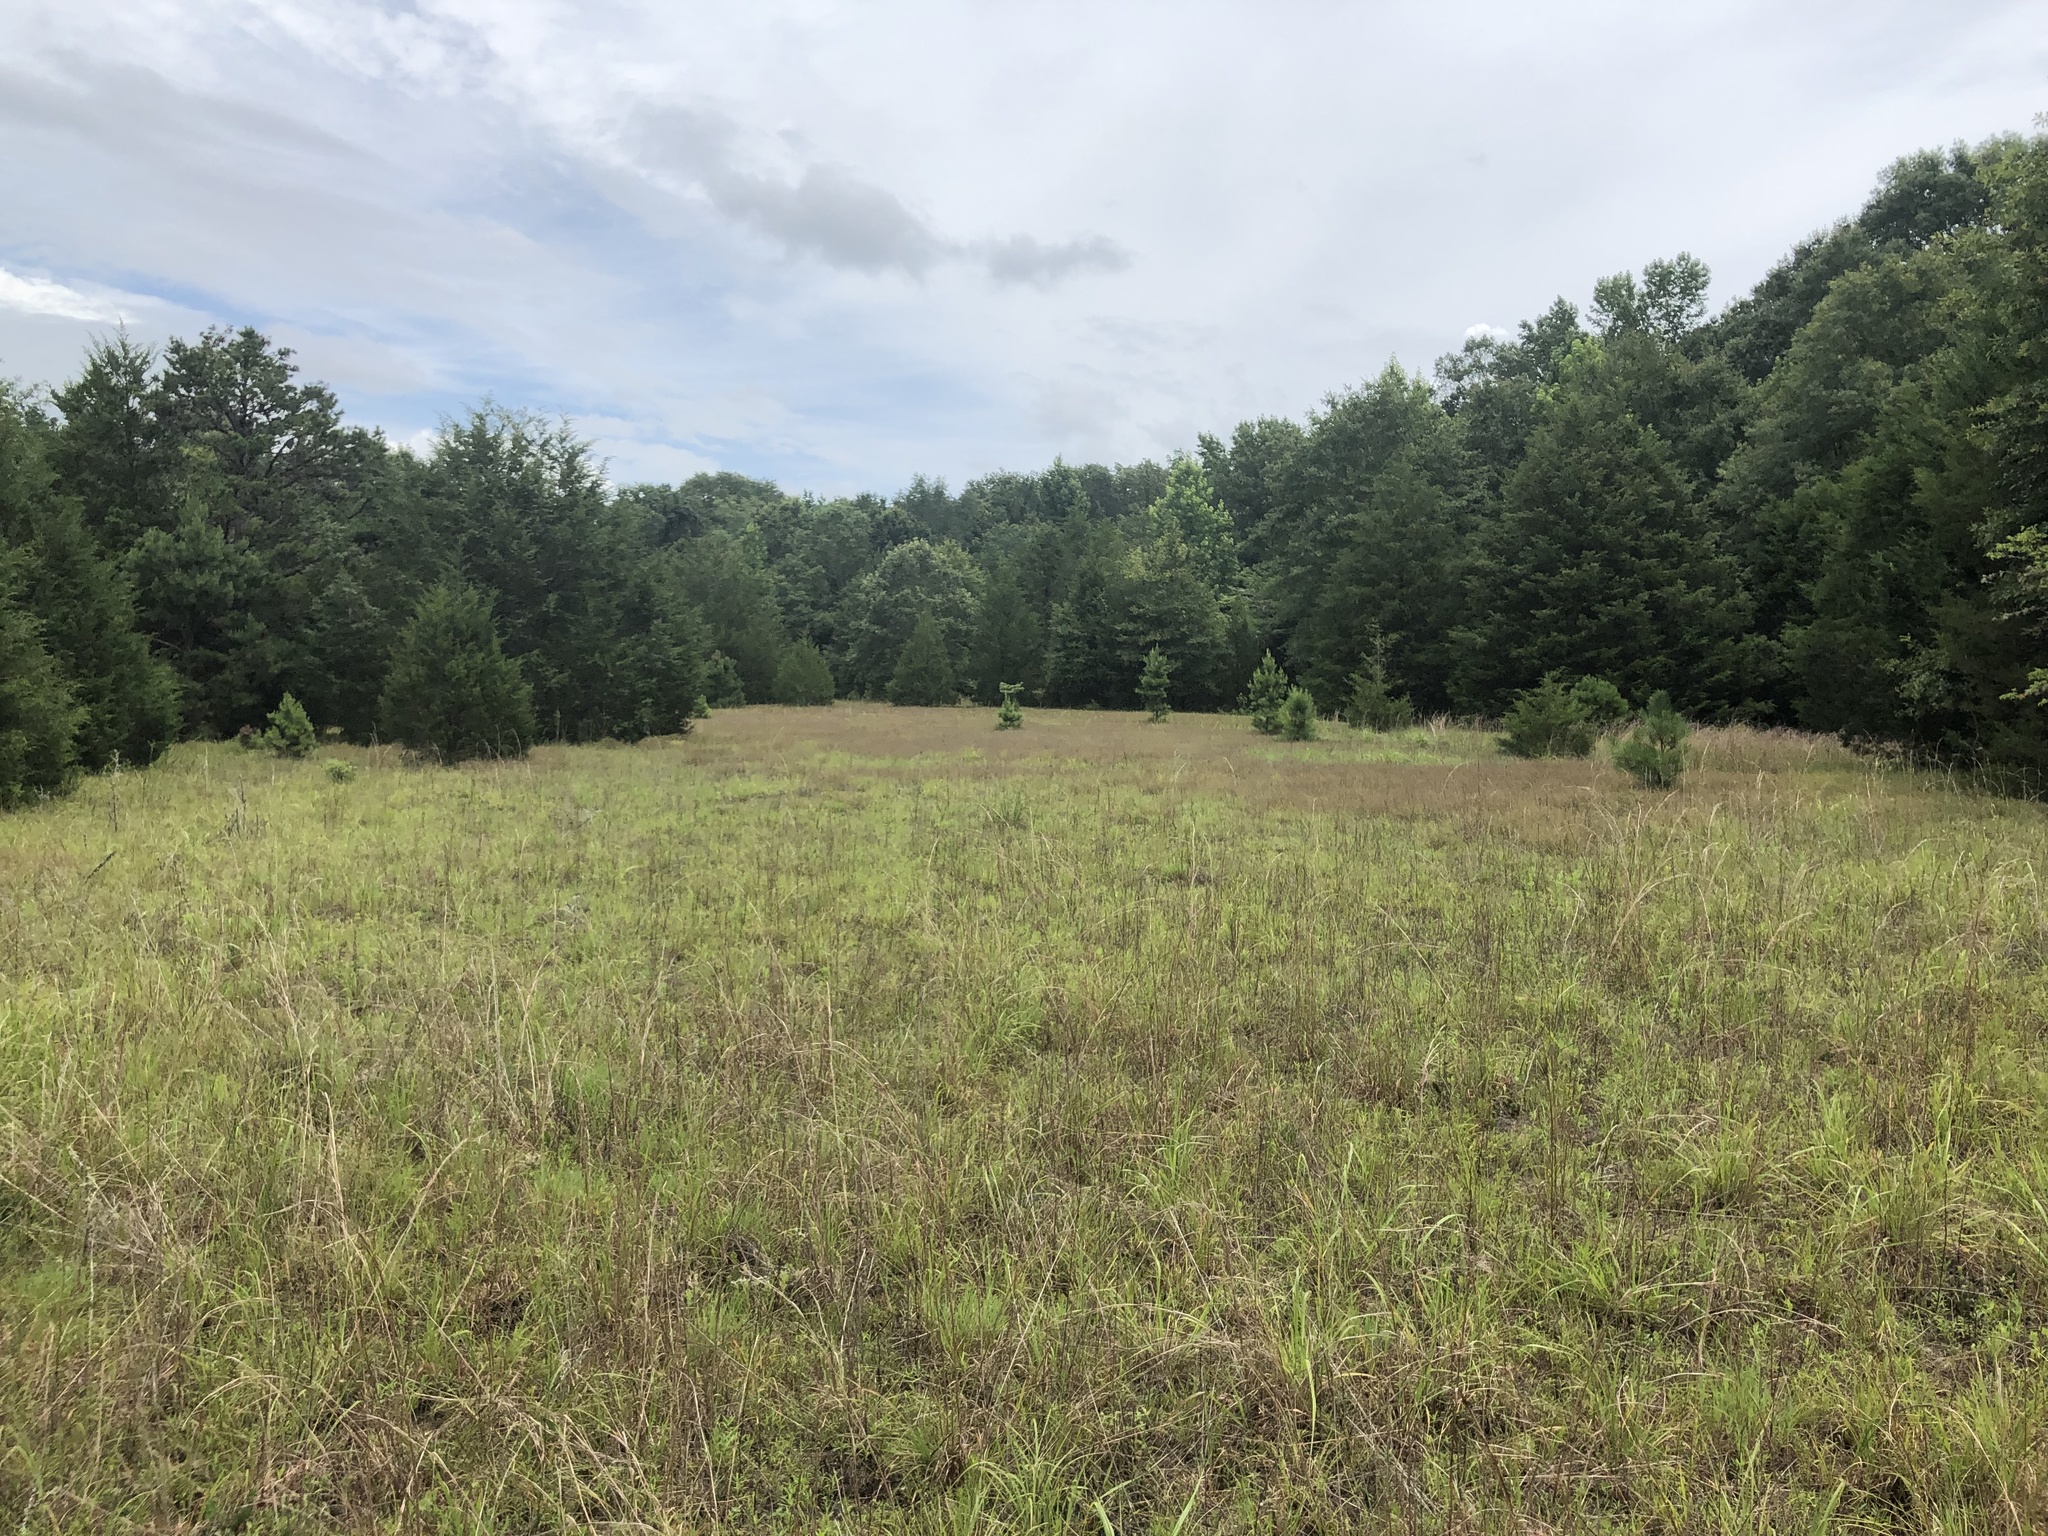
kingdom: Plantae
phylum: Tracheophyta
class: Magnoliopsida
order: Malvales
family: Cistaceae
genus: Crocanthemum
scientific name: Crocanthemum rosmarinifolium
